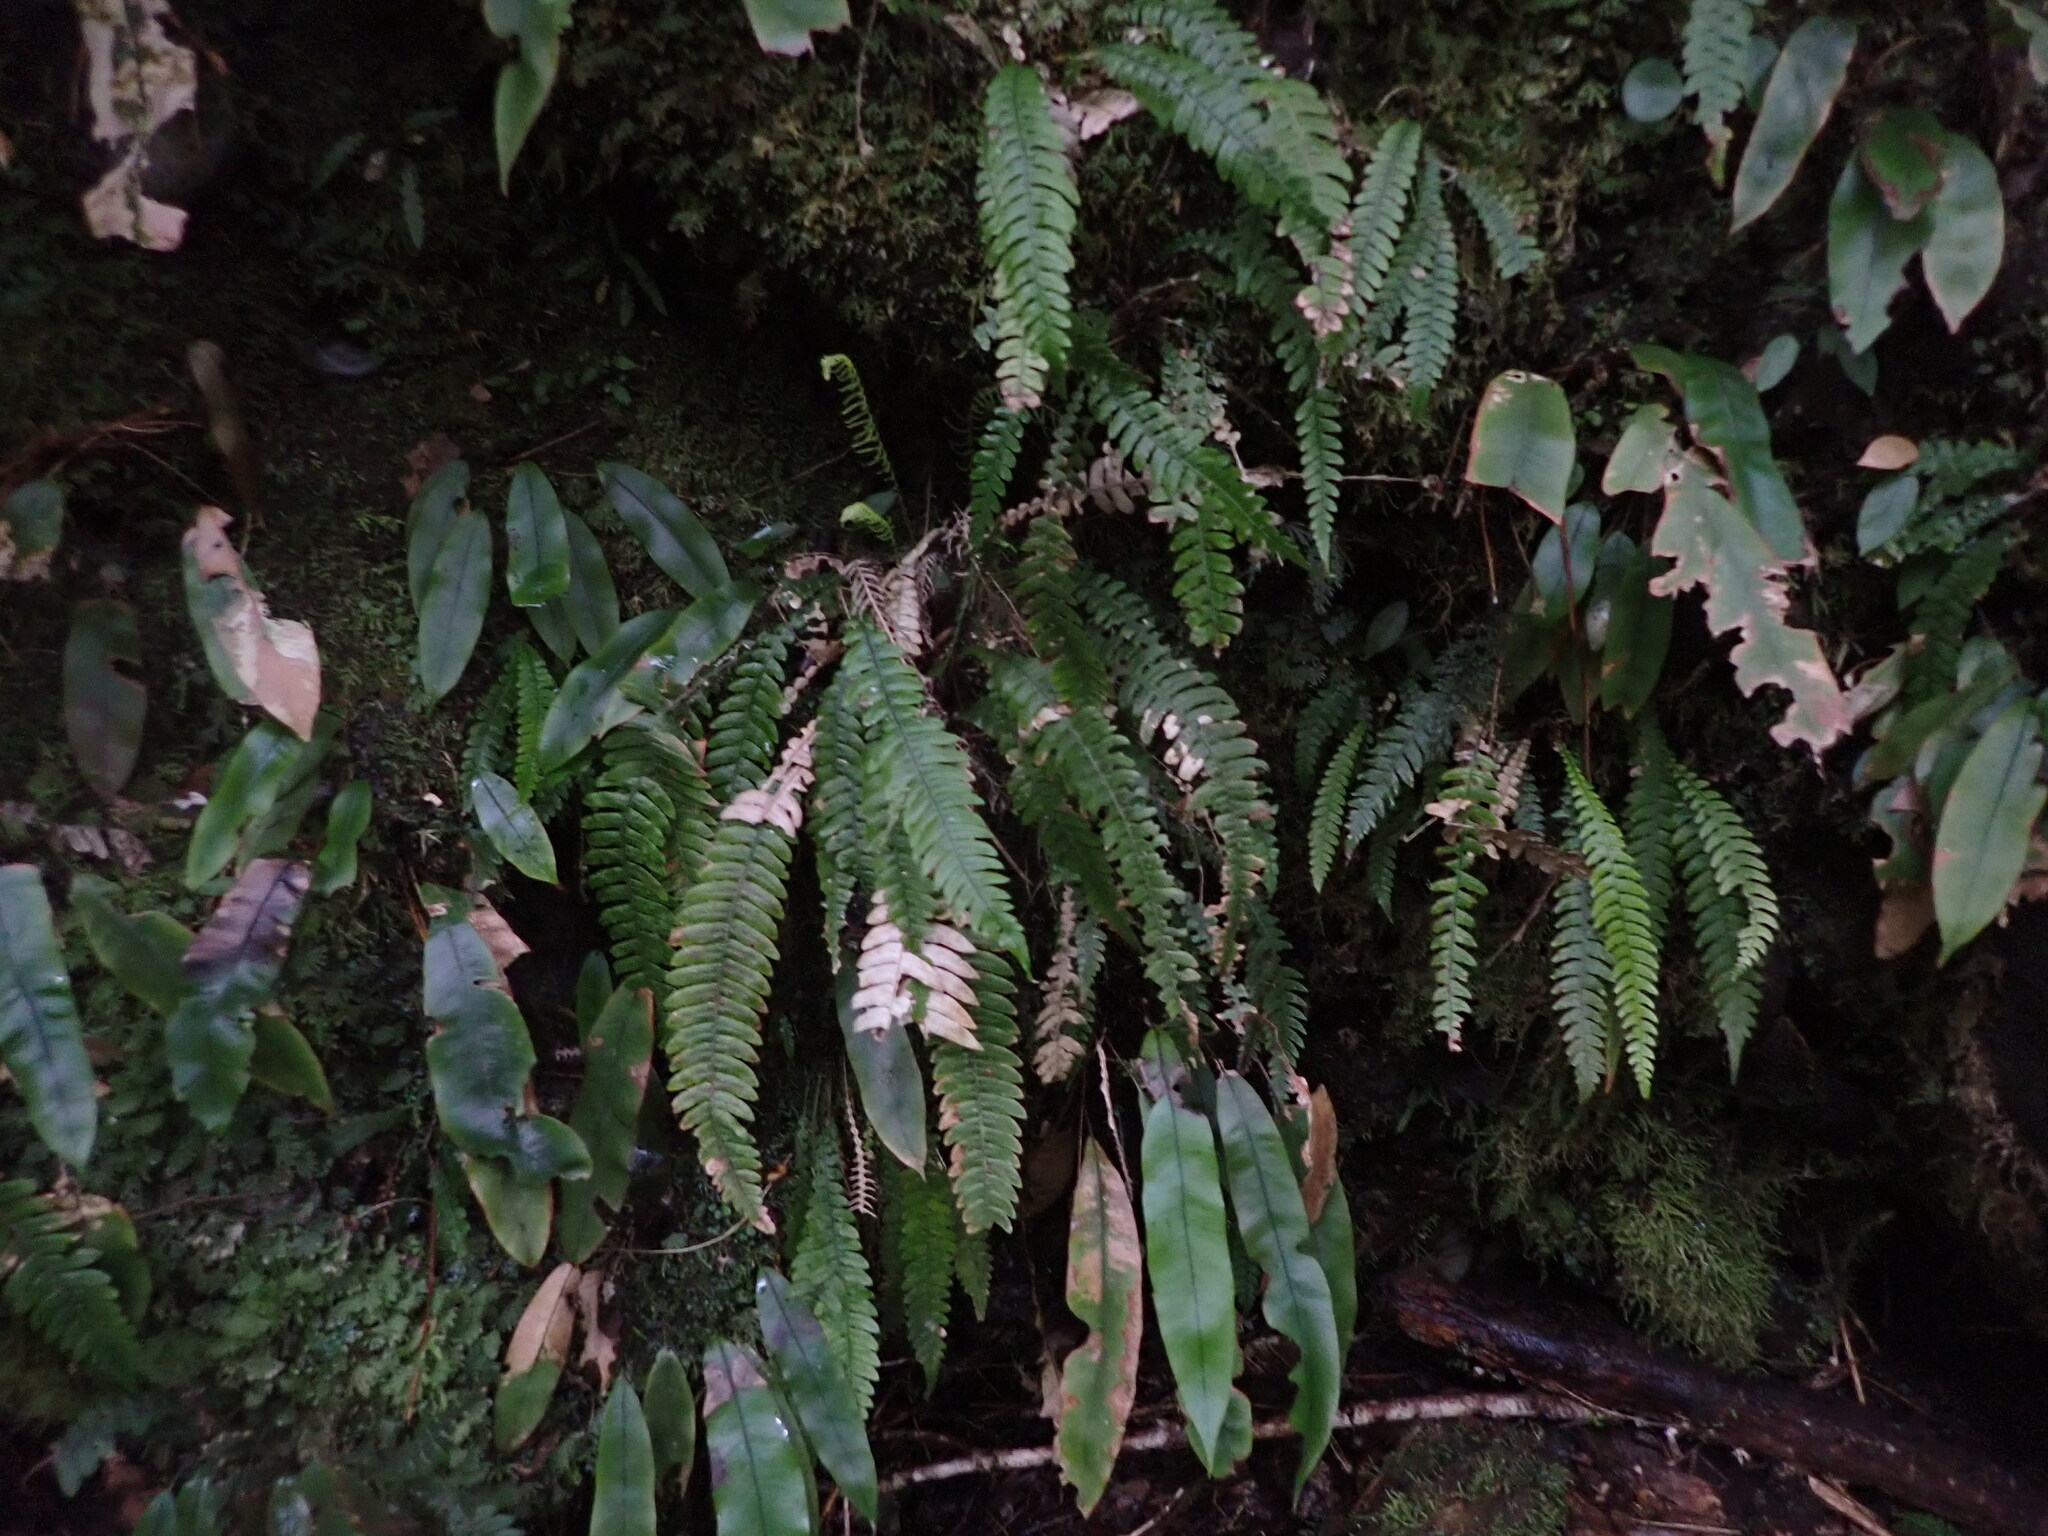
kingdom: Plantae
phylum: Tracheophyta
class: Polypodiopsida
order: Polypodiales
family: Blechnaceae
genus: Austroblechnum
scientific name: Austroblechnum lanceolatum
